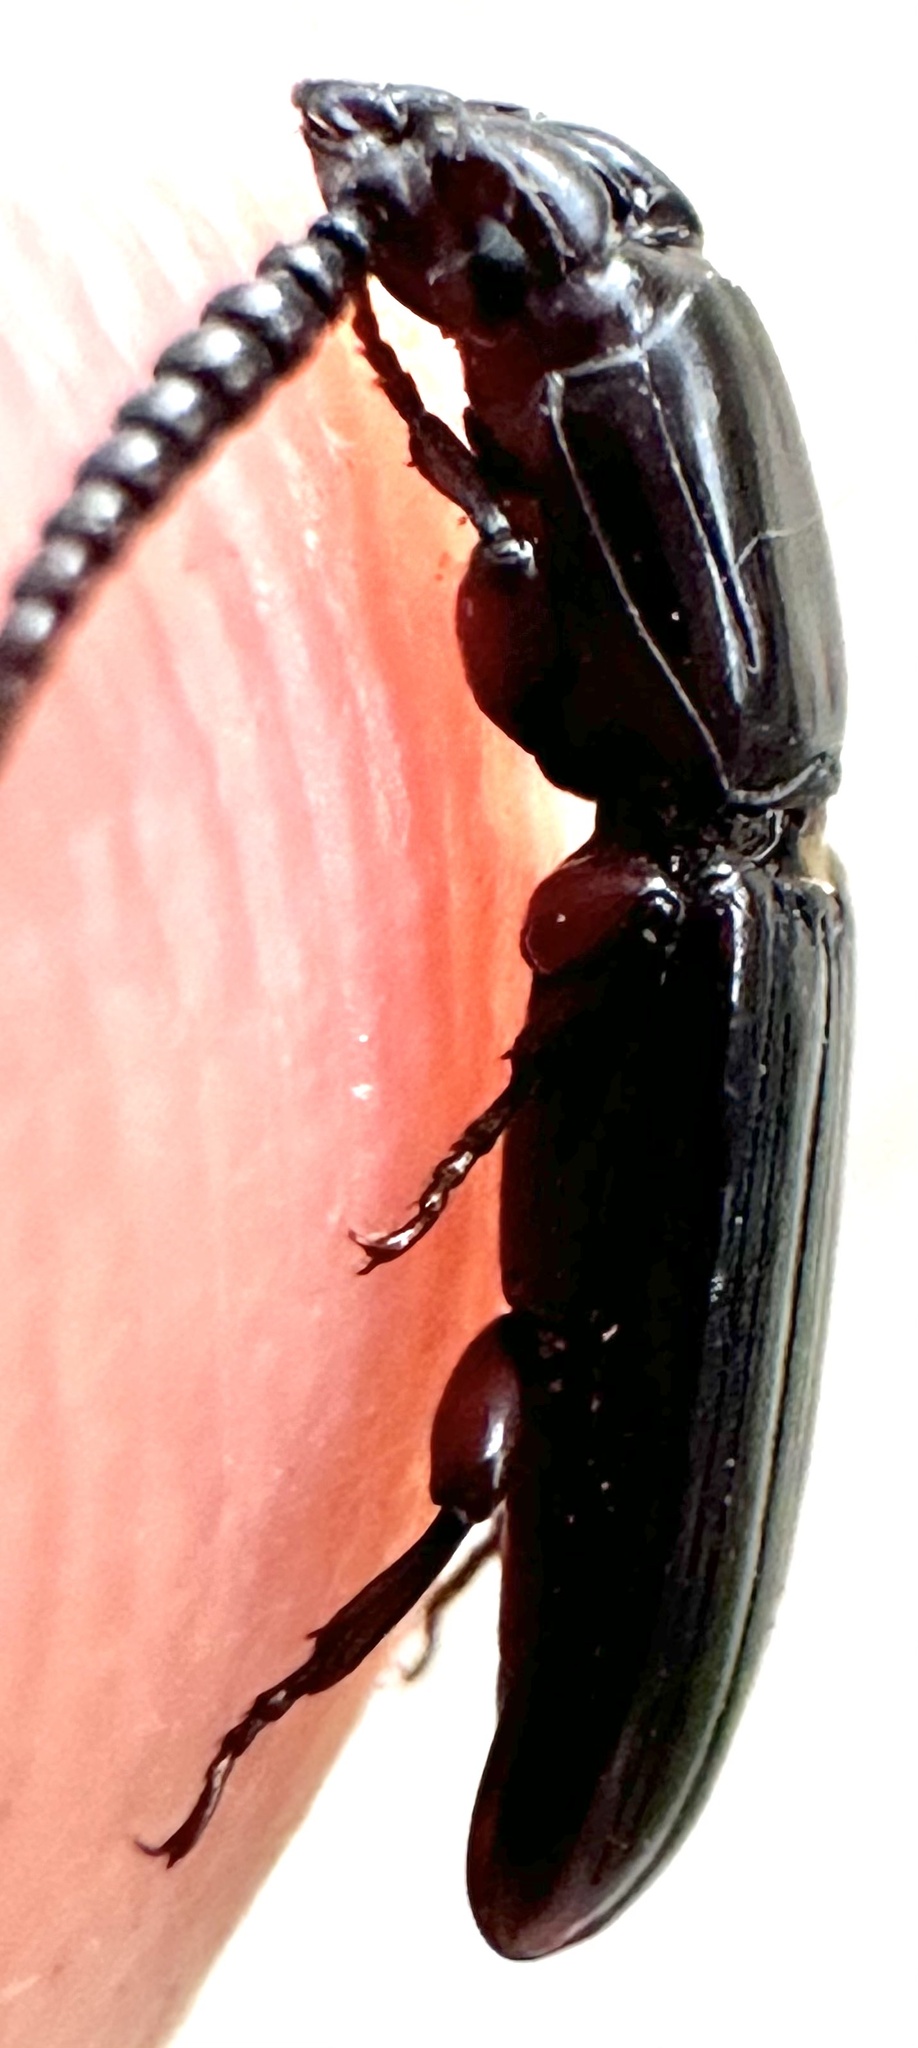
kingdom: Animalia
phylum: Arthropoda
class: Insecta
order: Coleoptera
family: Passandridae
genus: Passandra
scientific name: Passandra
